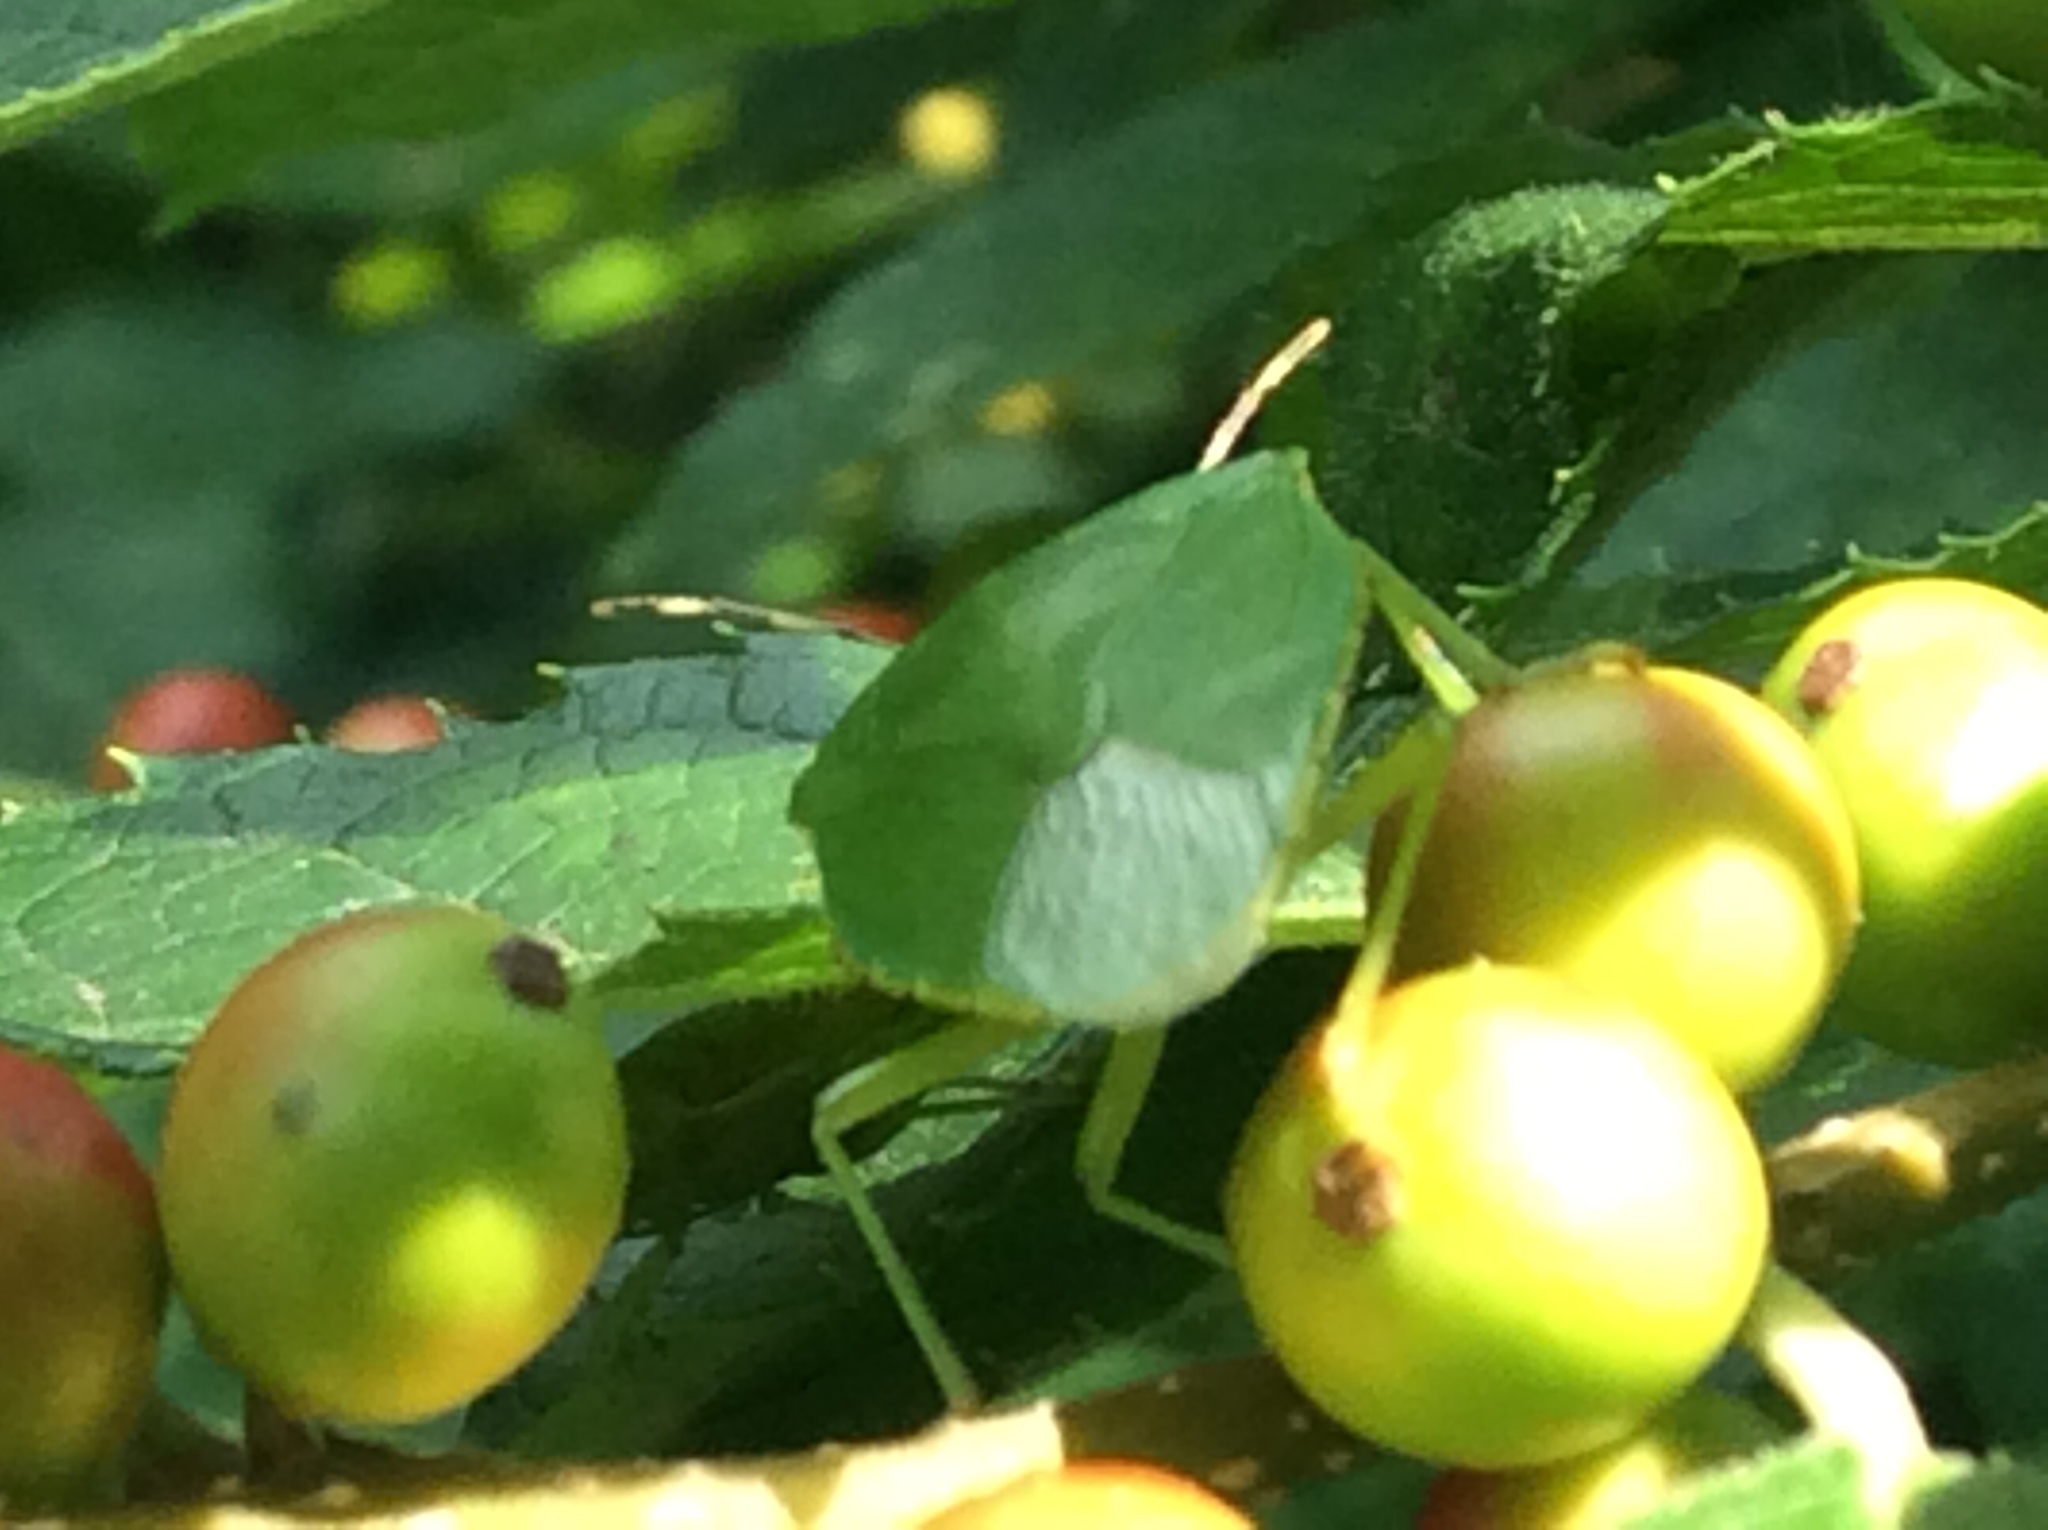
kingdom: Animalia
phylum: Arthropoda
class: Insecta
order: Hemiptera
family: Pentatomidae
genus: Chinavia
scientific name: Chinavia hilaris
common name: Green stink bug
